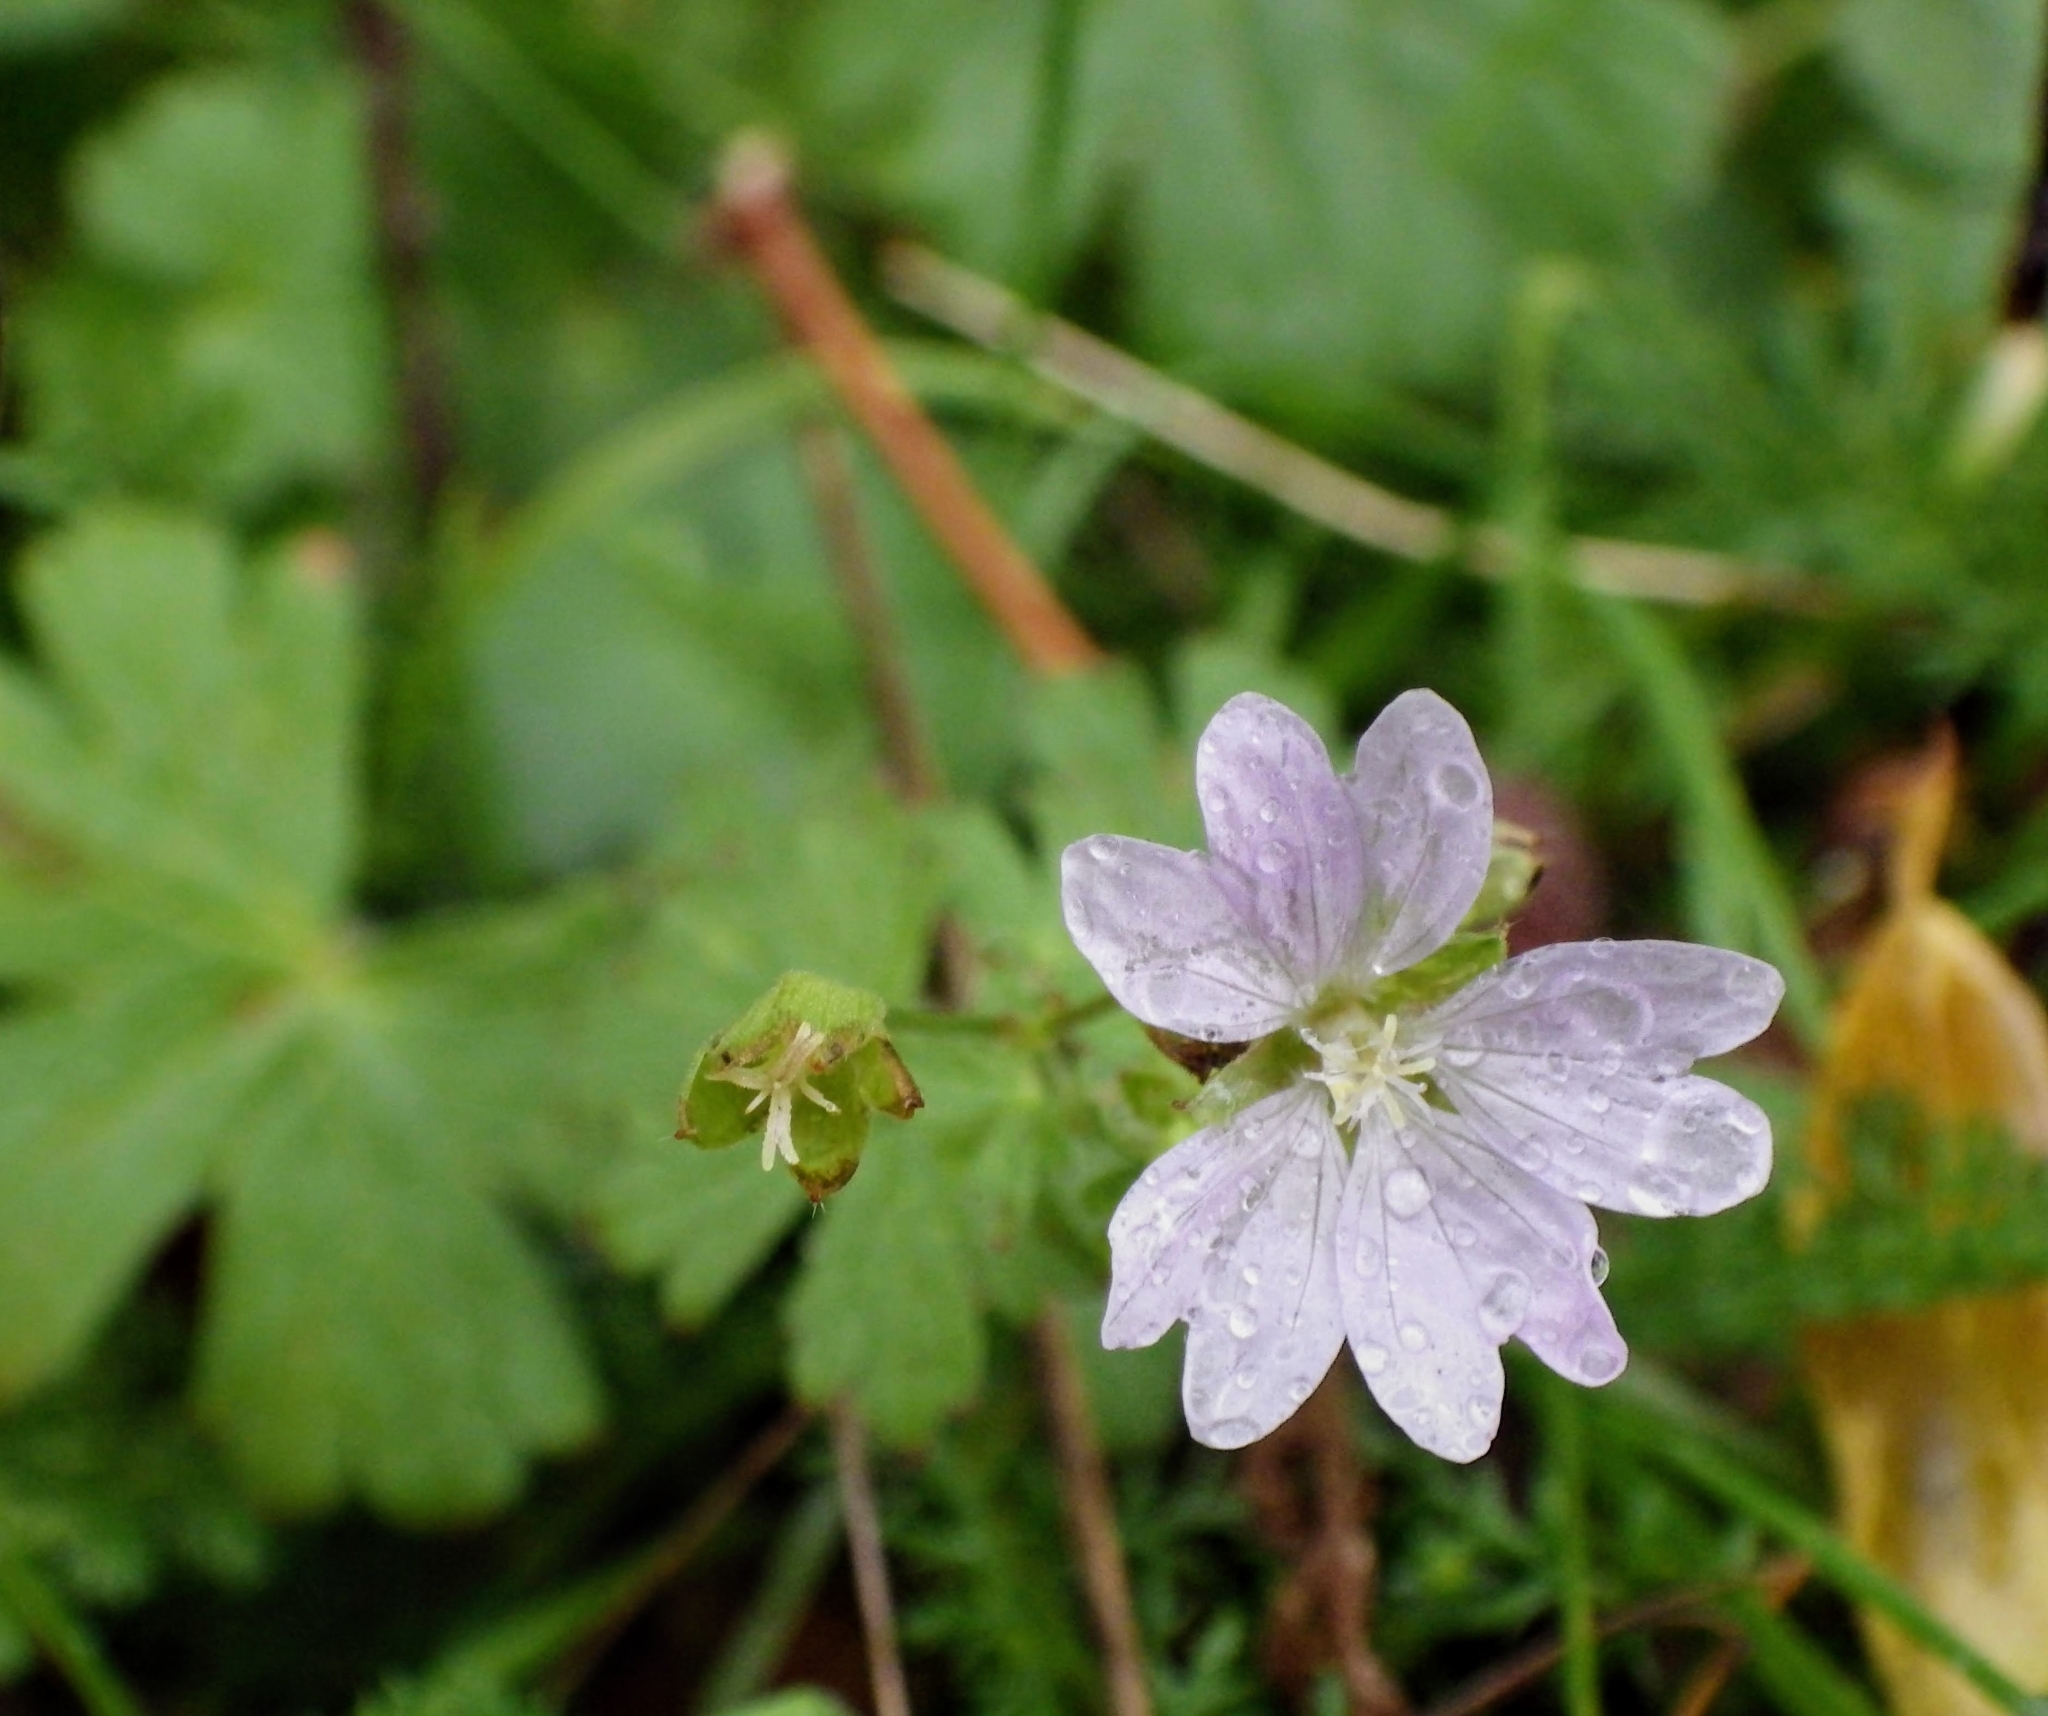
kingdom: Plantae
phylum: Tracheophyta
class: Magnoliopsida
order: Geraniales
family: Geraniaceae
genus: Geranium
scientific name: Geranium pyrenaicum
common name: Hedgerow crane's-bill
